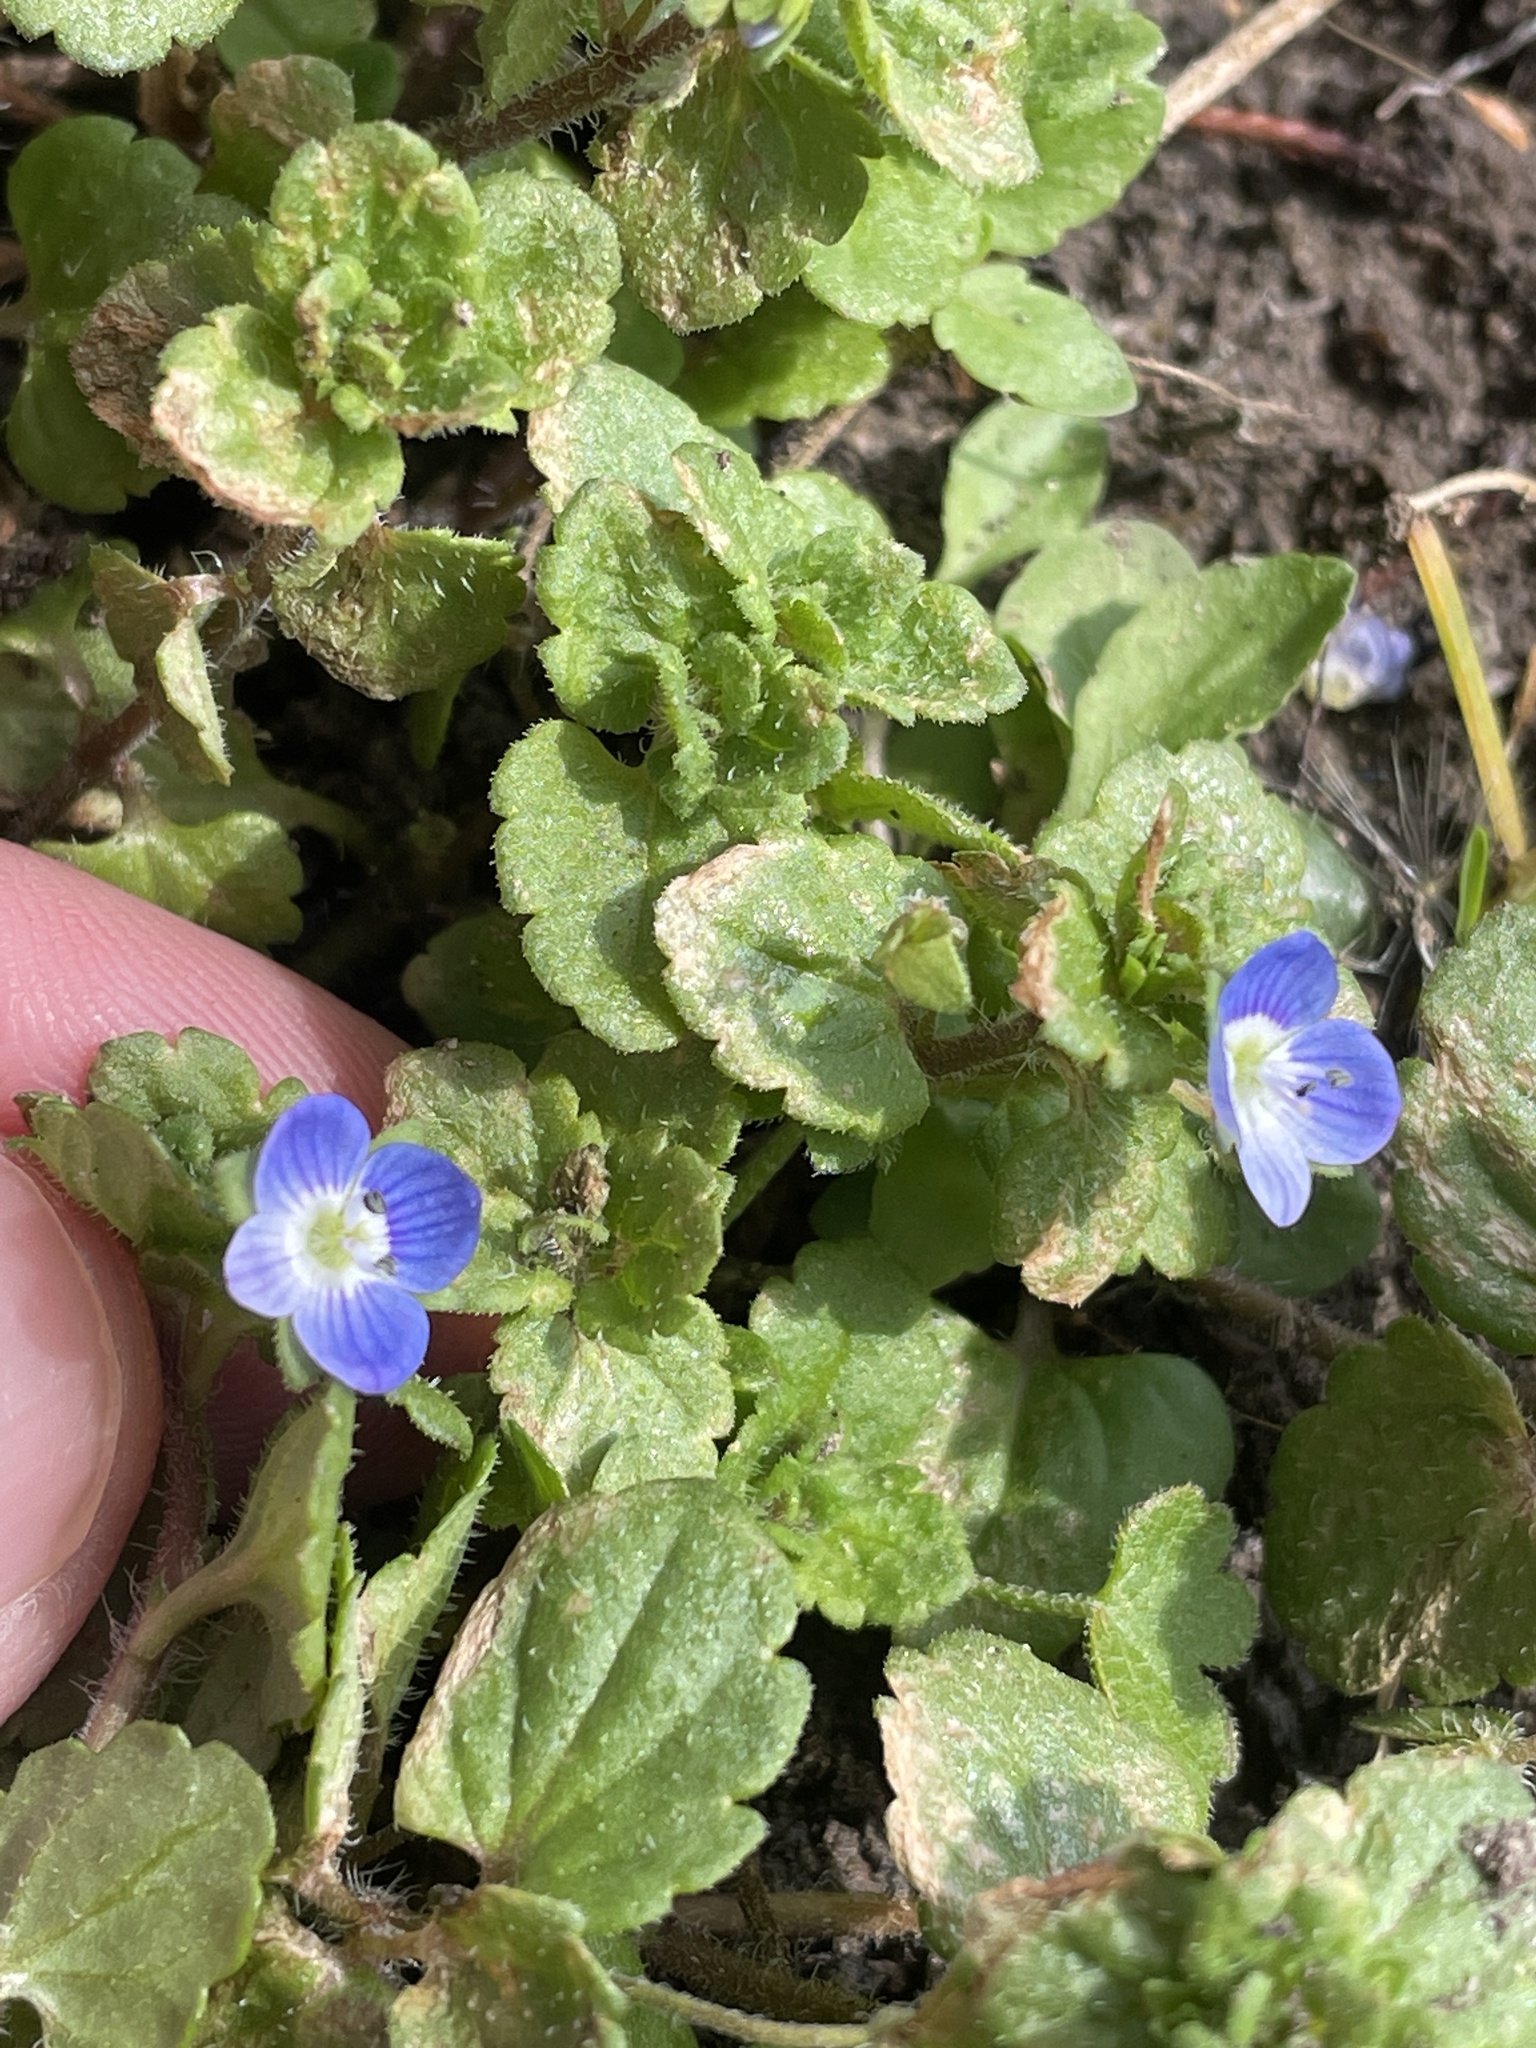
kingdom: Plantae
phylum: Tracheophyta
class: Magnoliopsida
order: Lamiales
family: Plantaginaceae
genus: Veronica
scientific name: Veronica persica
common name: Common field-speedwell
